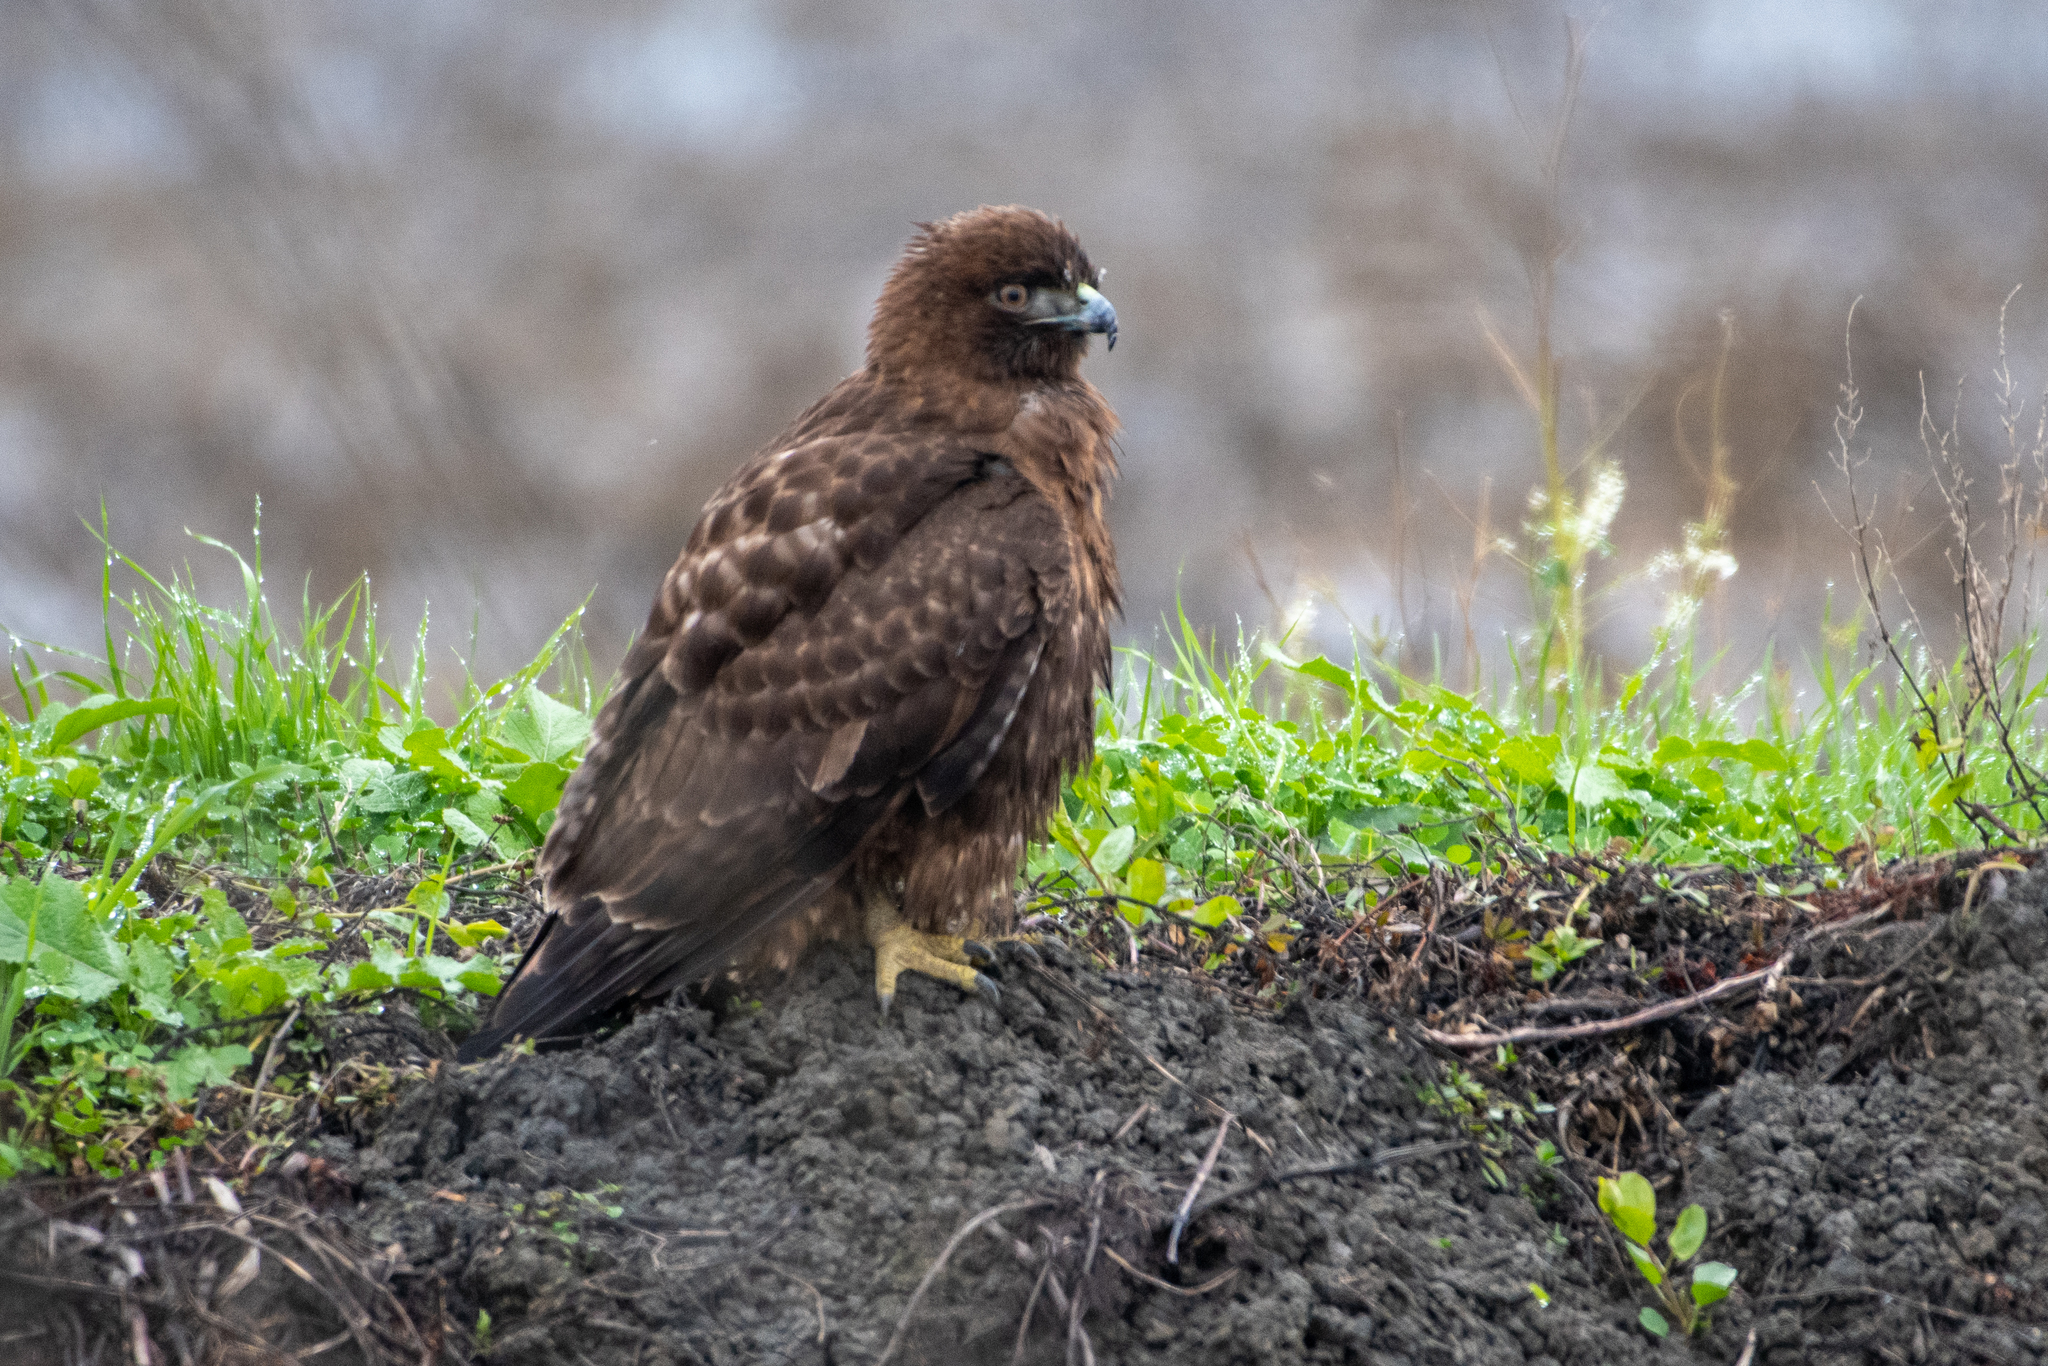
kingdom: Animalia
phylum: Chordata
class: Aves
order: Accipitriformes
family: Accipitridae
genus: Buteo
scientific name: Buteo jamaicensis
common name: Red-tailed hawk
